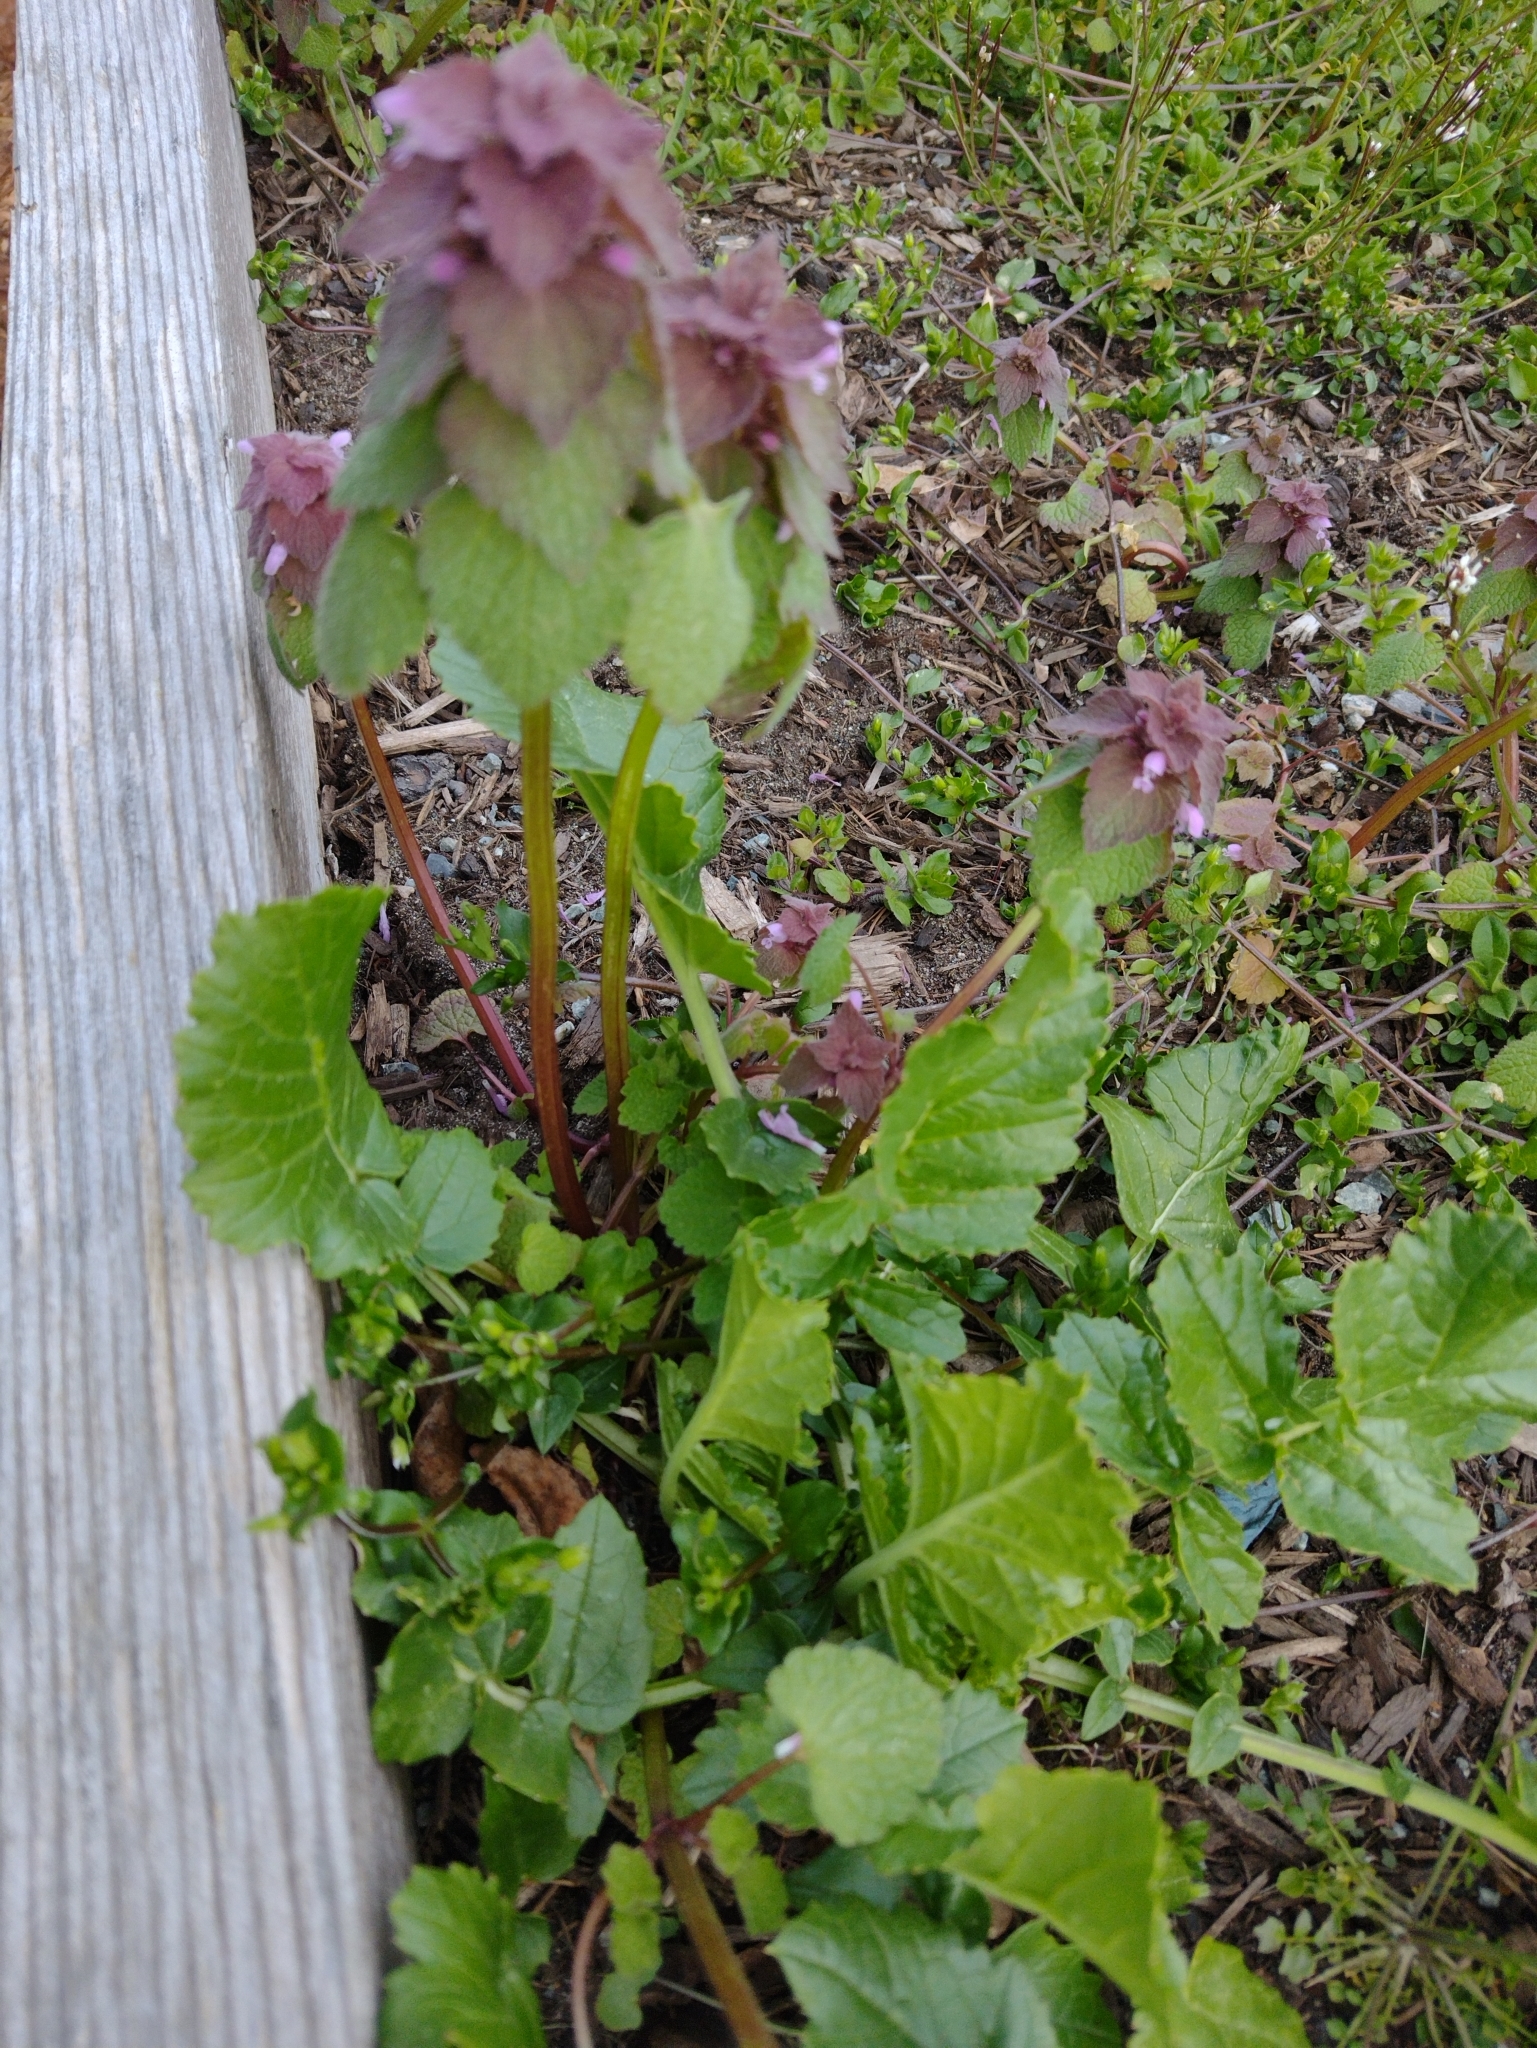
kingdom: Plantae
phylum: Tracheophyta
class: Magnoliopsida
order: Lamiales
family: Lamiaceae
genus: Lamium
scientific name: Lamium purpureum
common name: Red dead-nettle
